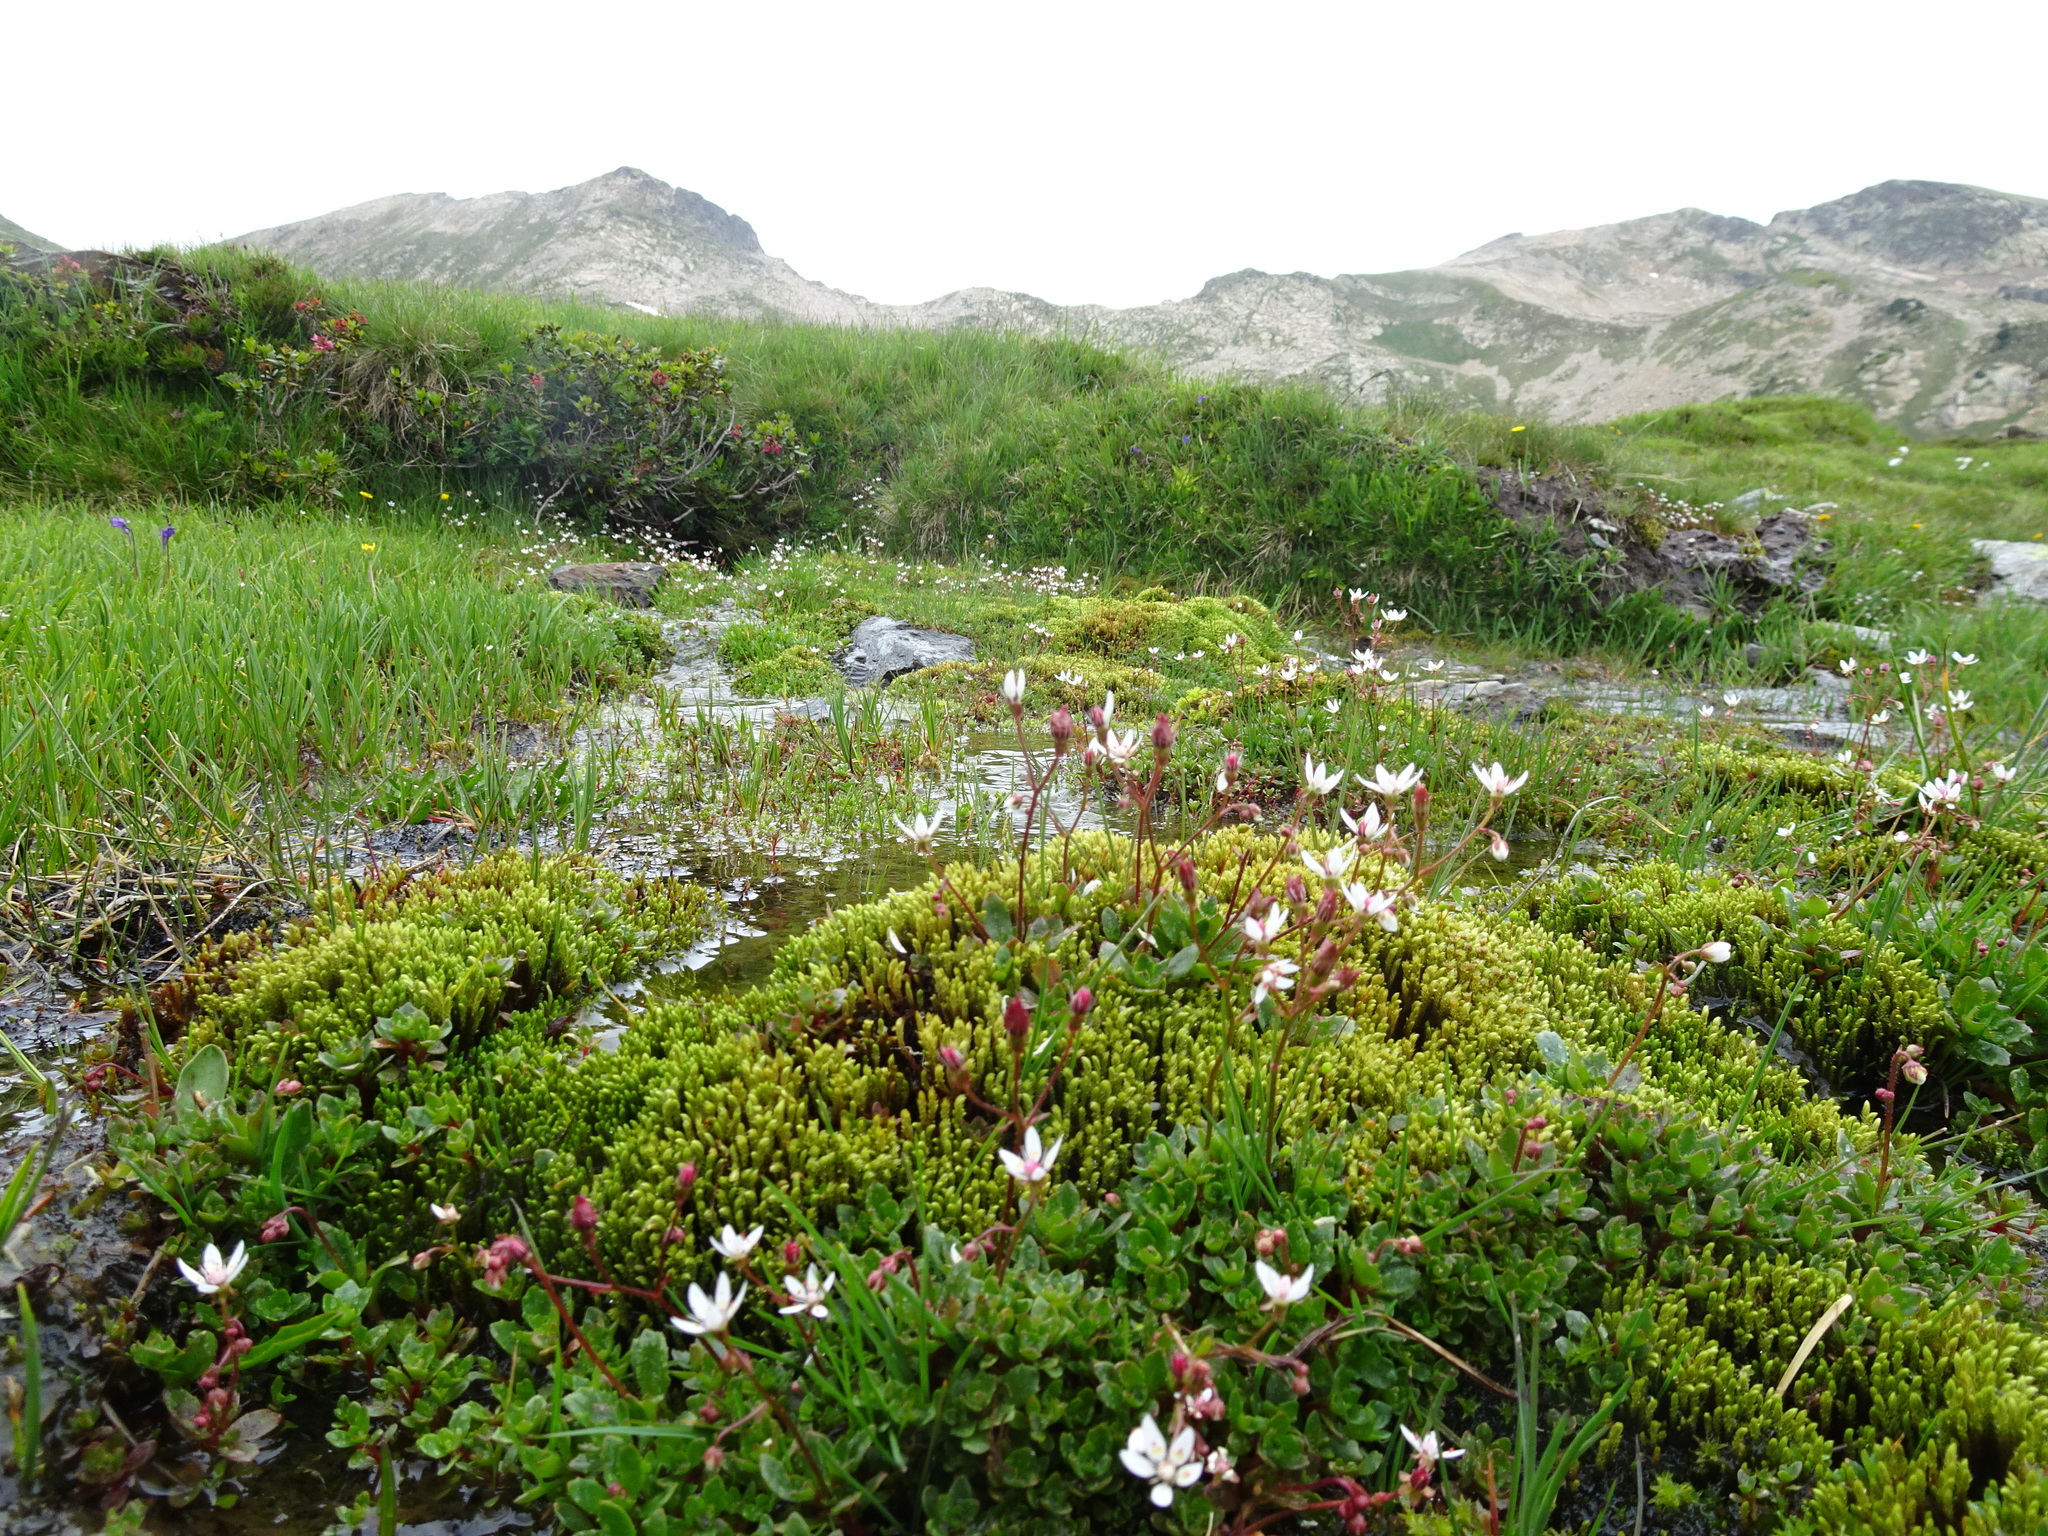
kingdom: Plantae
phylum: Tracheophyta
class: Magnoliopsida
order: Saxifragales
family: Saxifragaceae
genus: Micranthes
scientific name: Micranthes stellaris
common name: Starry saxifrage
